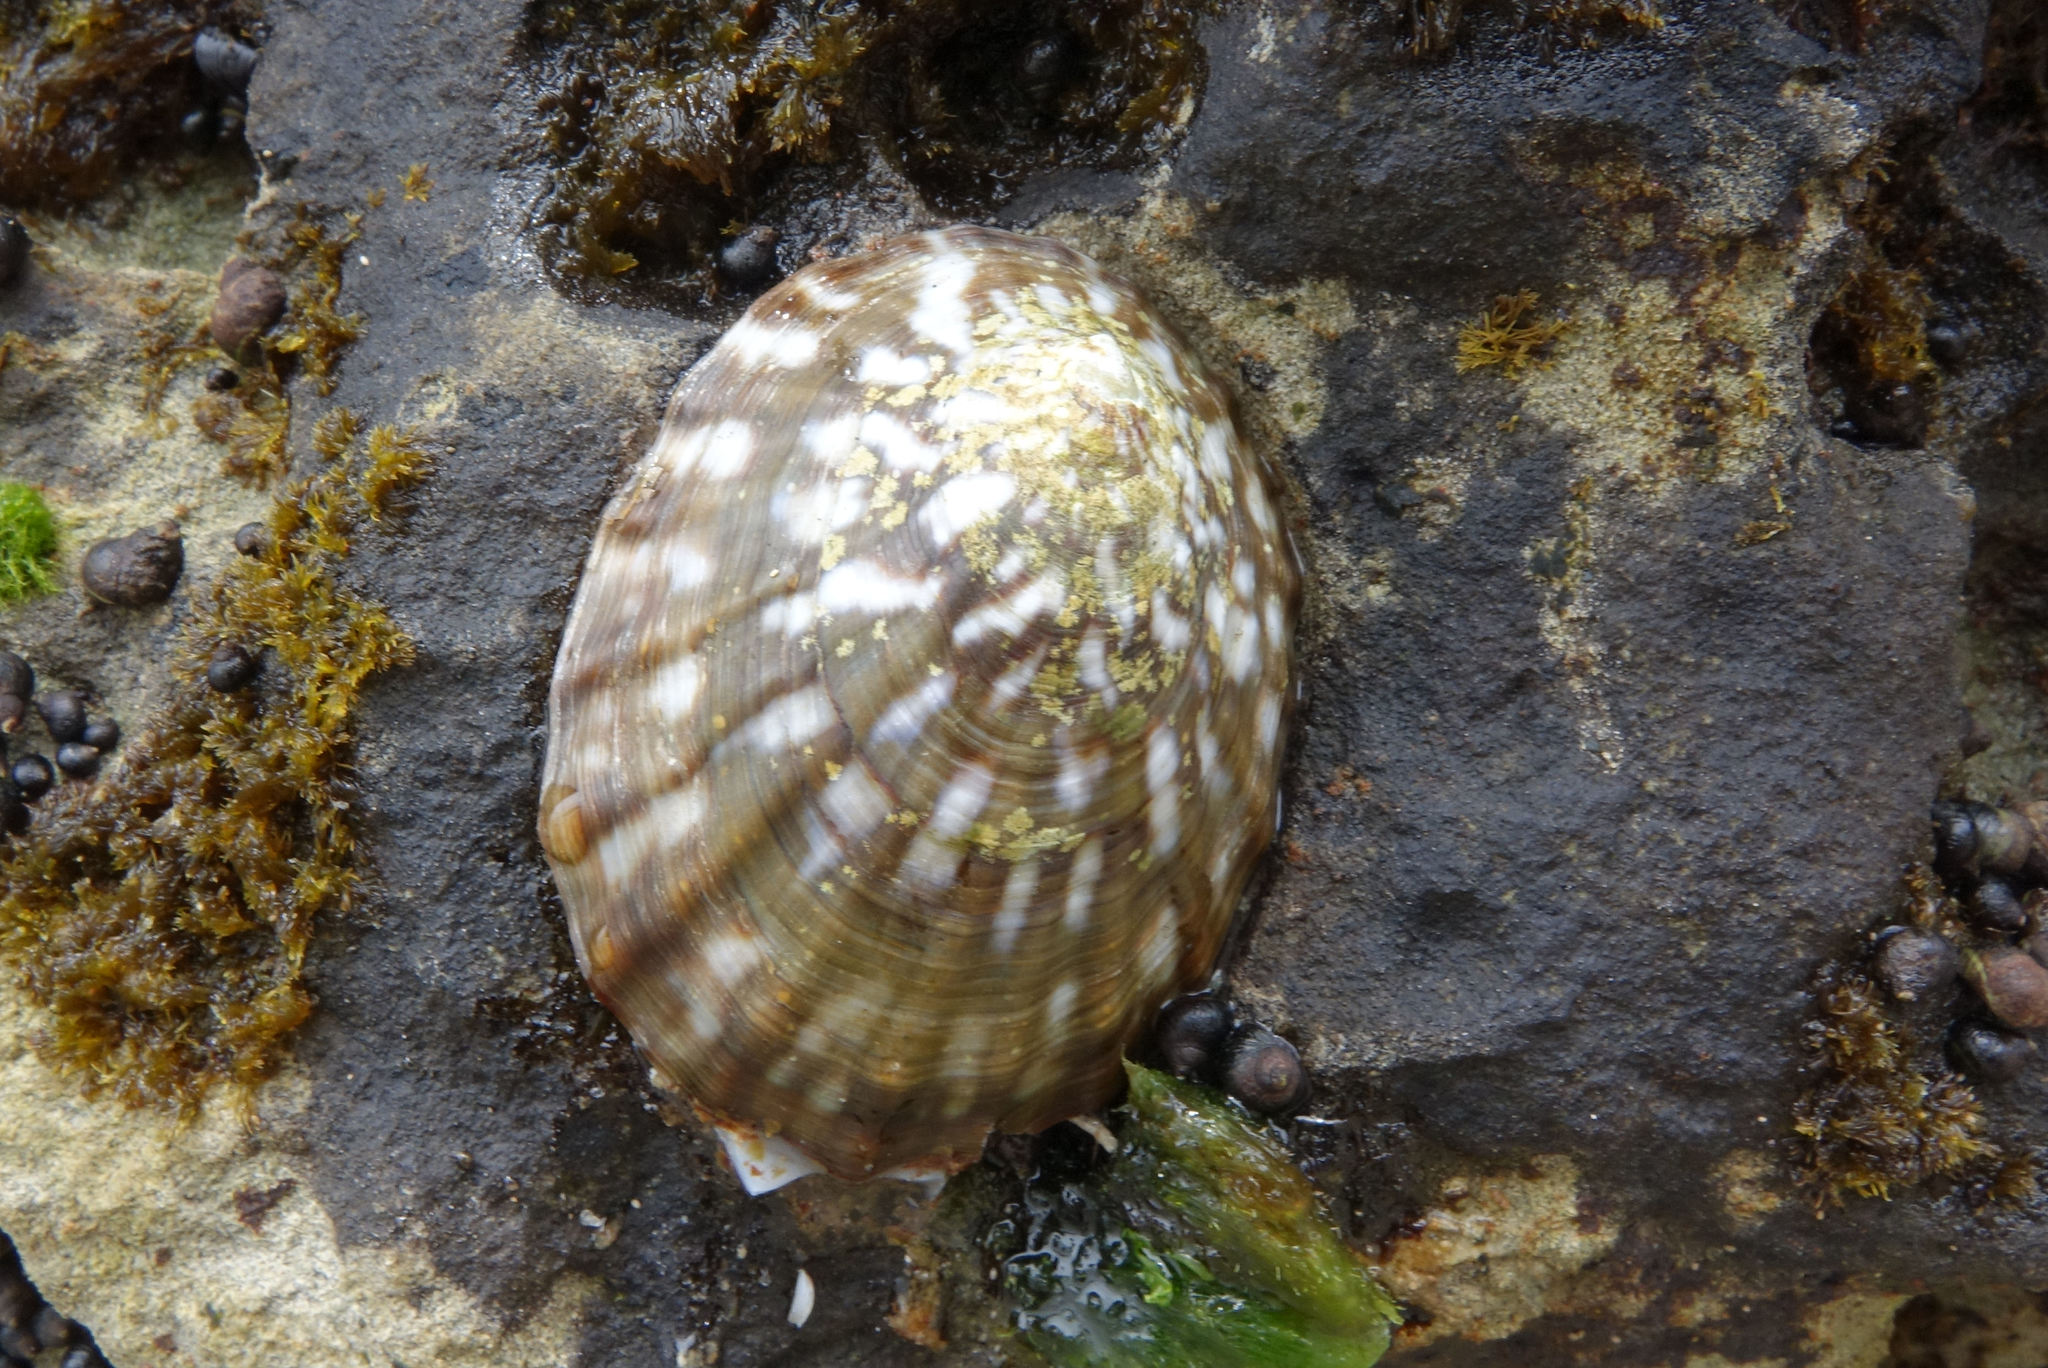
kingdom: Animalia
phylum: Mollusca
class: Gastropoda
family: Nacellidae
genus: Cellana
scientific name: Cellana strigilis
